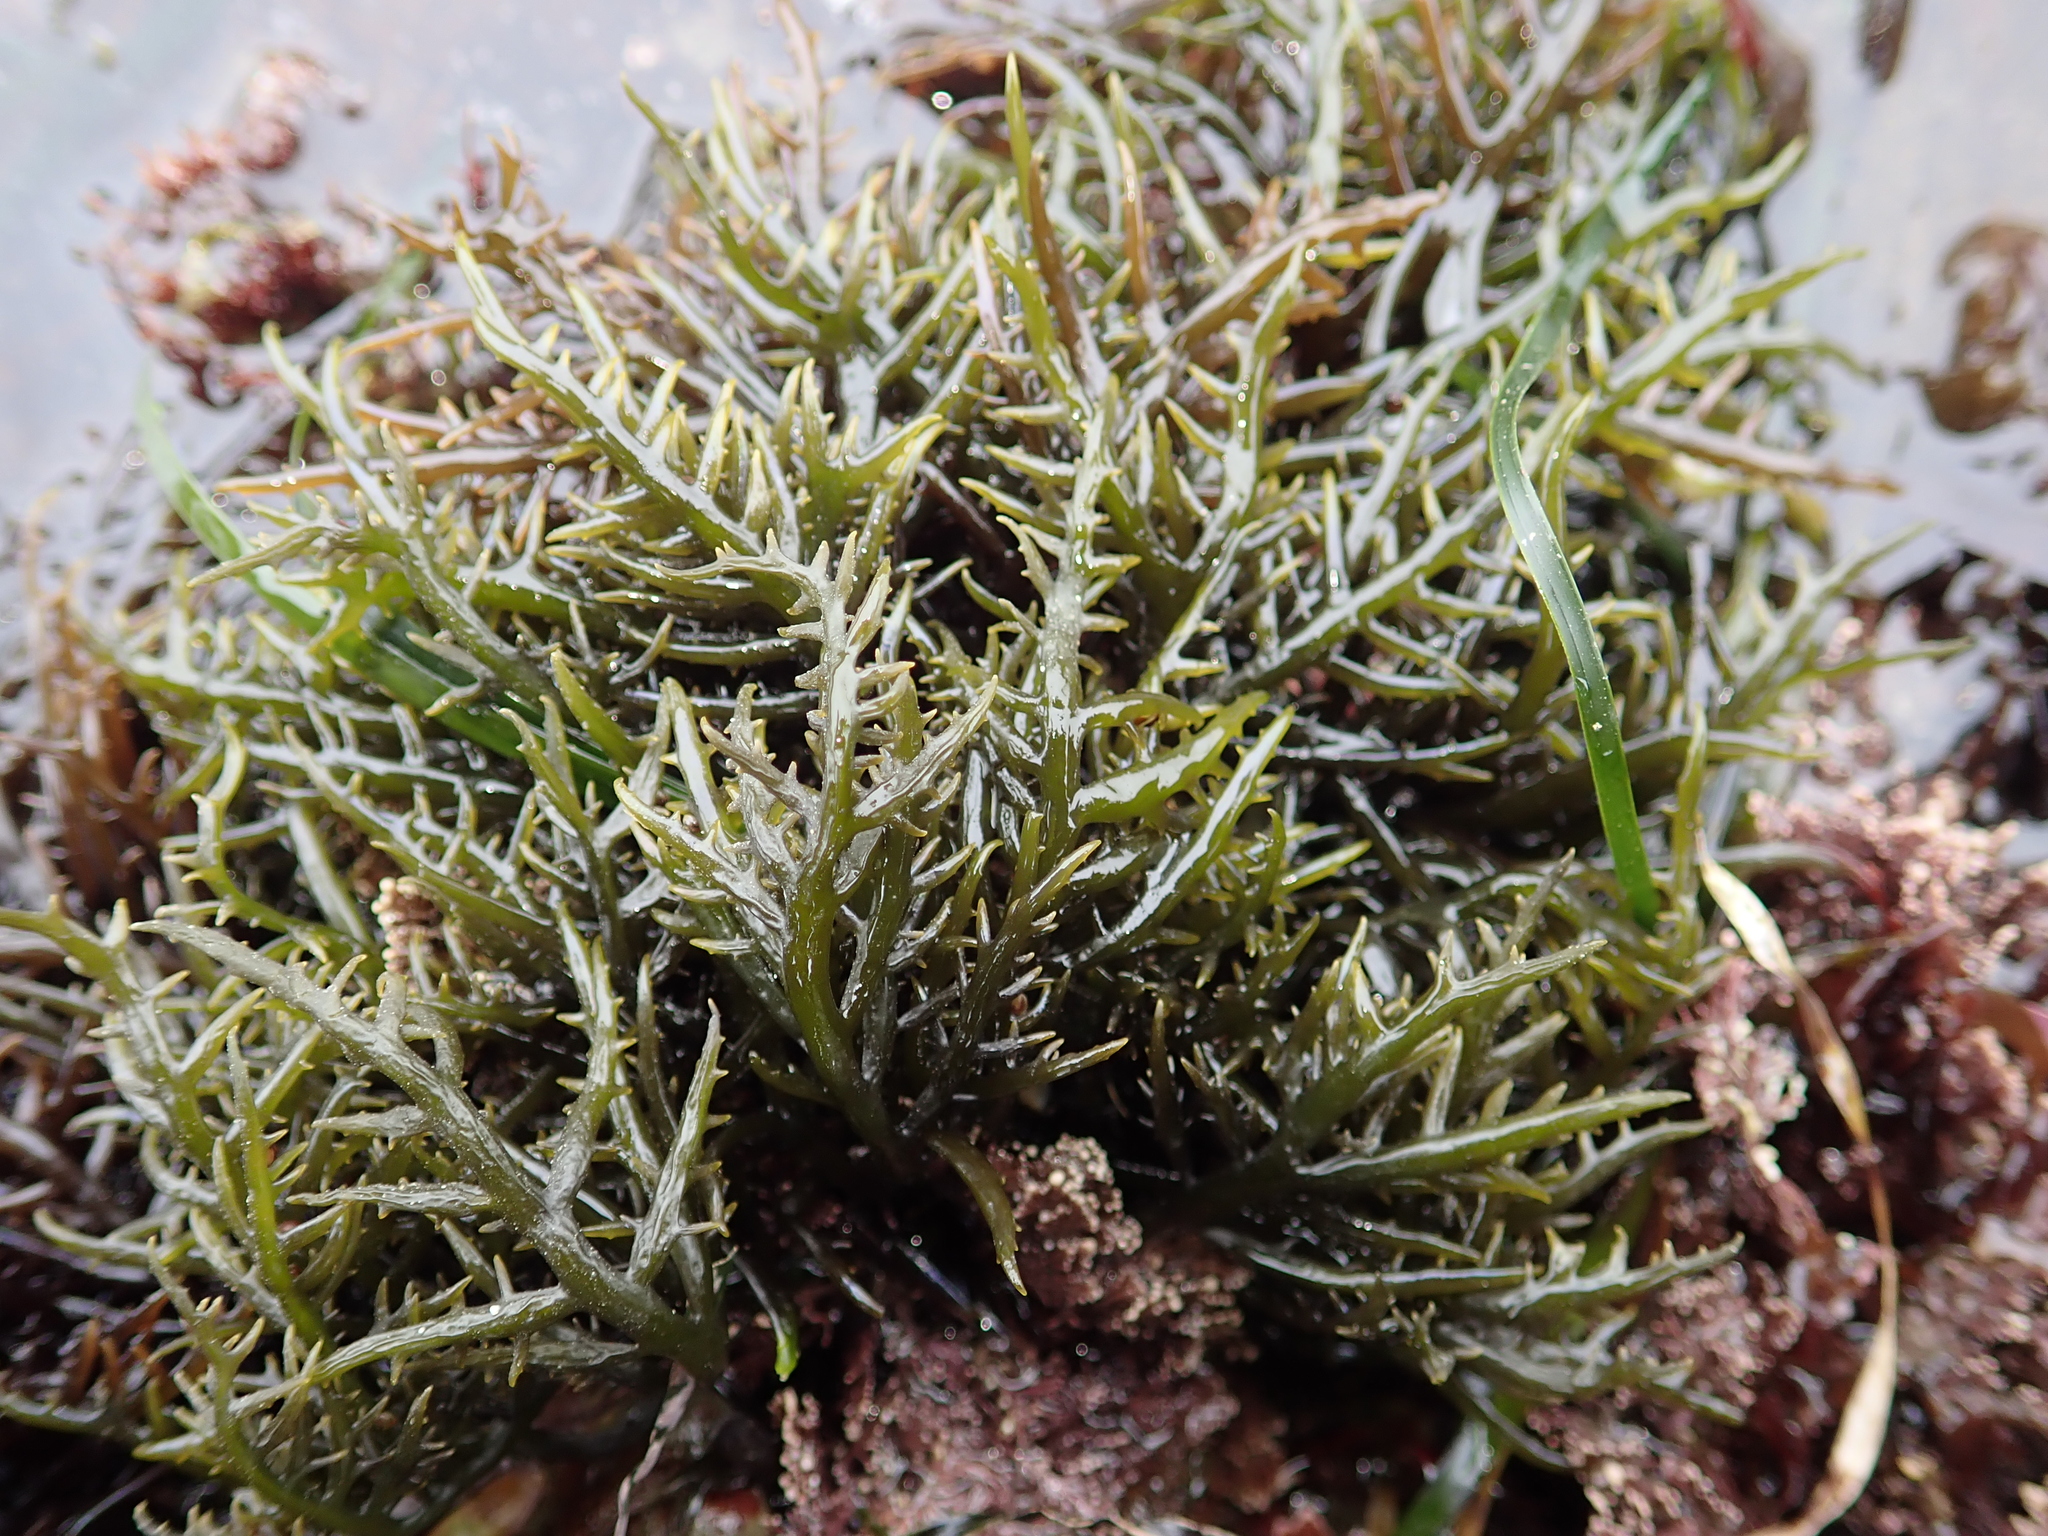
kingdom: Plantae
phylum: Rhodophyta
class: Florideophyceae
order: Gigartinales
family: Gigartinaceae
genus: Chondracanthus
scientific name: Chondracanthus canaliculatus
